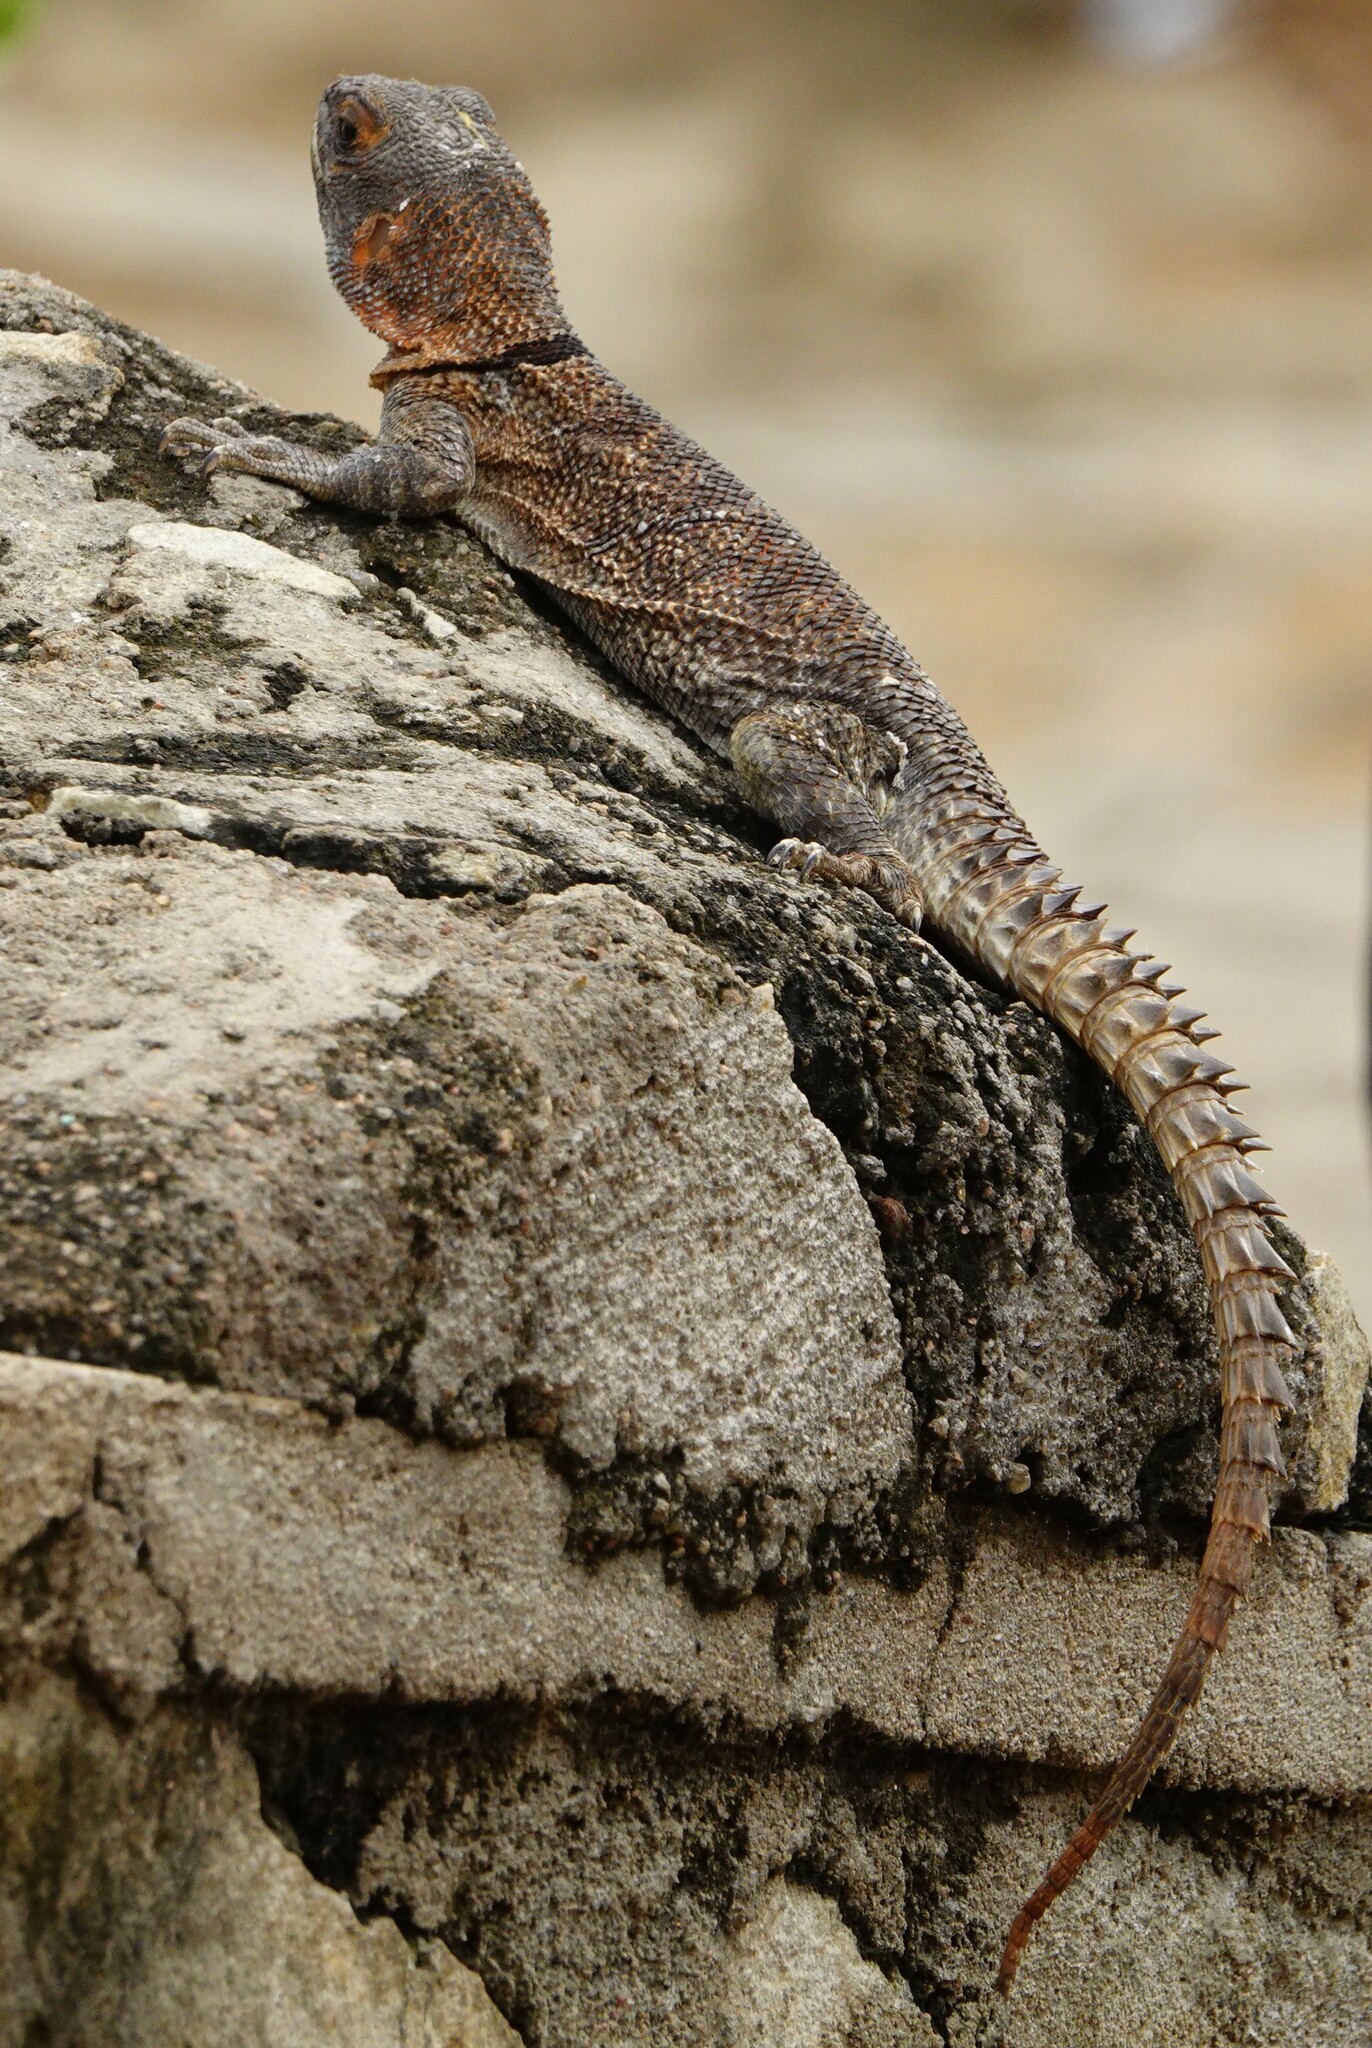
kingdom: Animalia
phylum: Chordata
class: Squamata
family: Opluridae
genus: Oplurus
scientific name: Oplurus cuvieri
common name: Cuvier's madagascar swift
